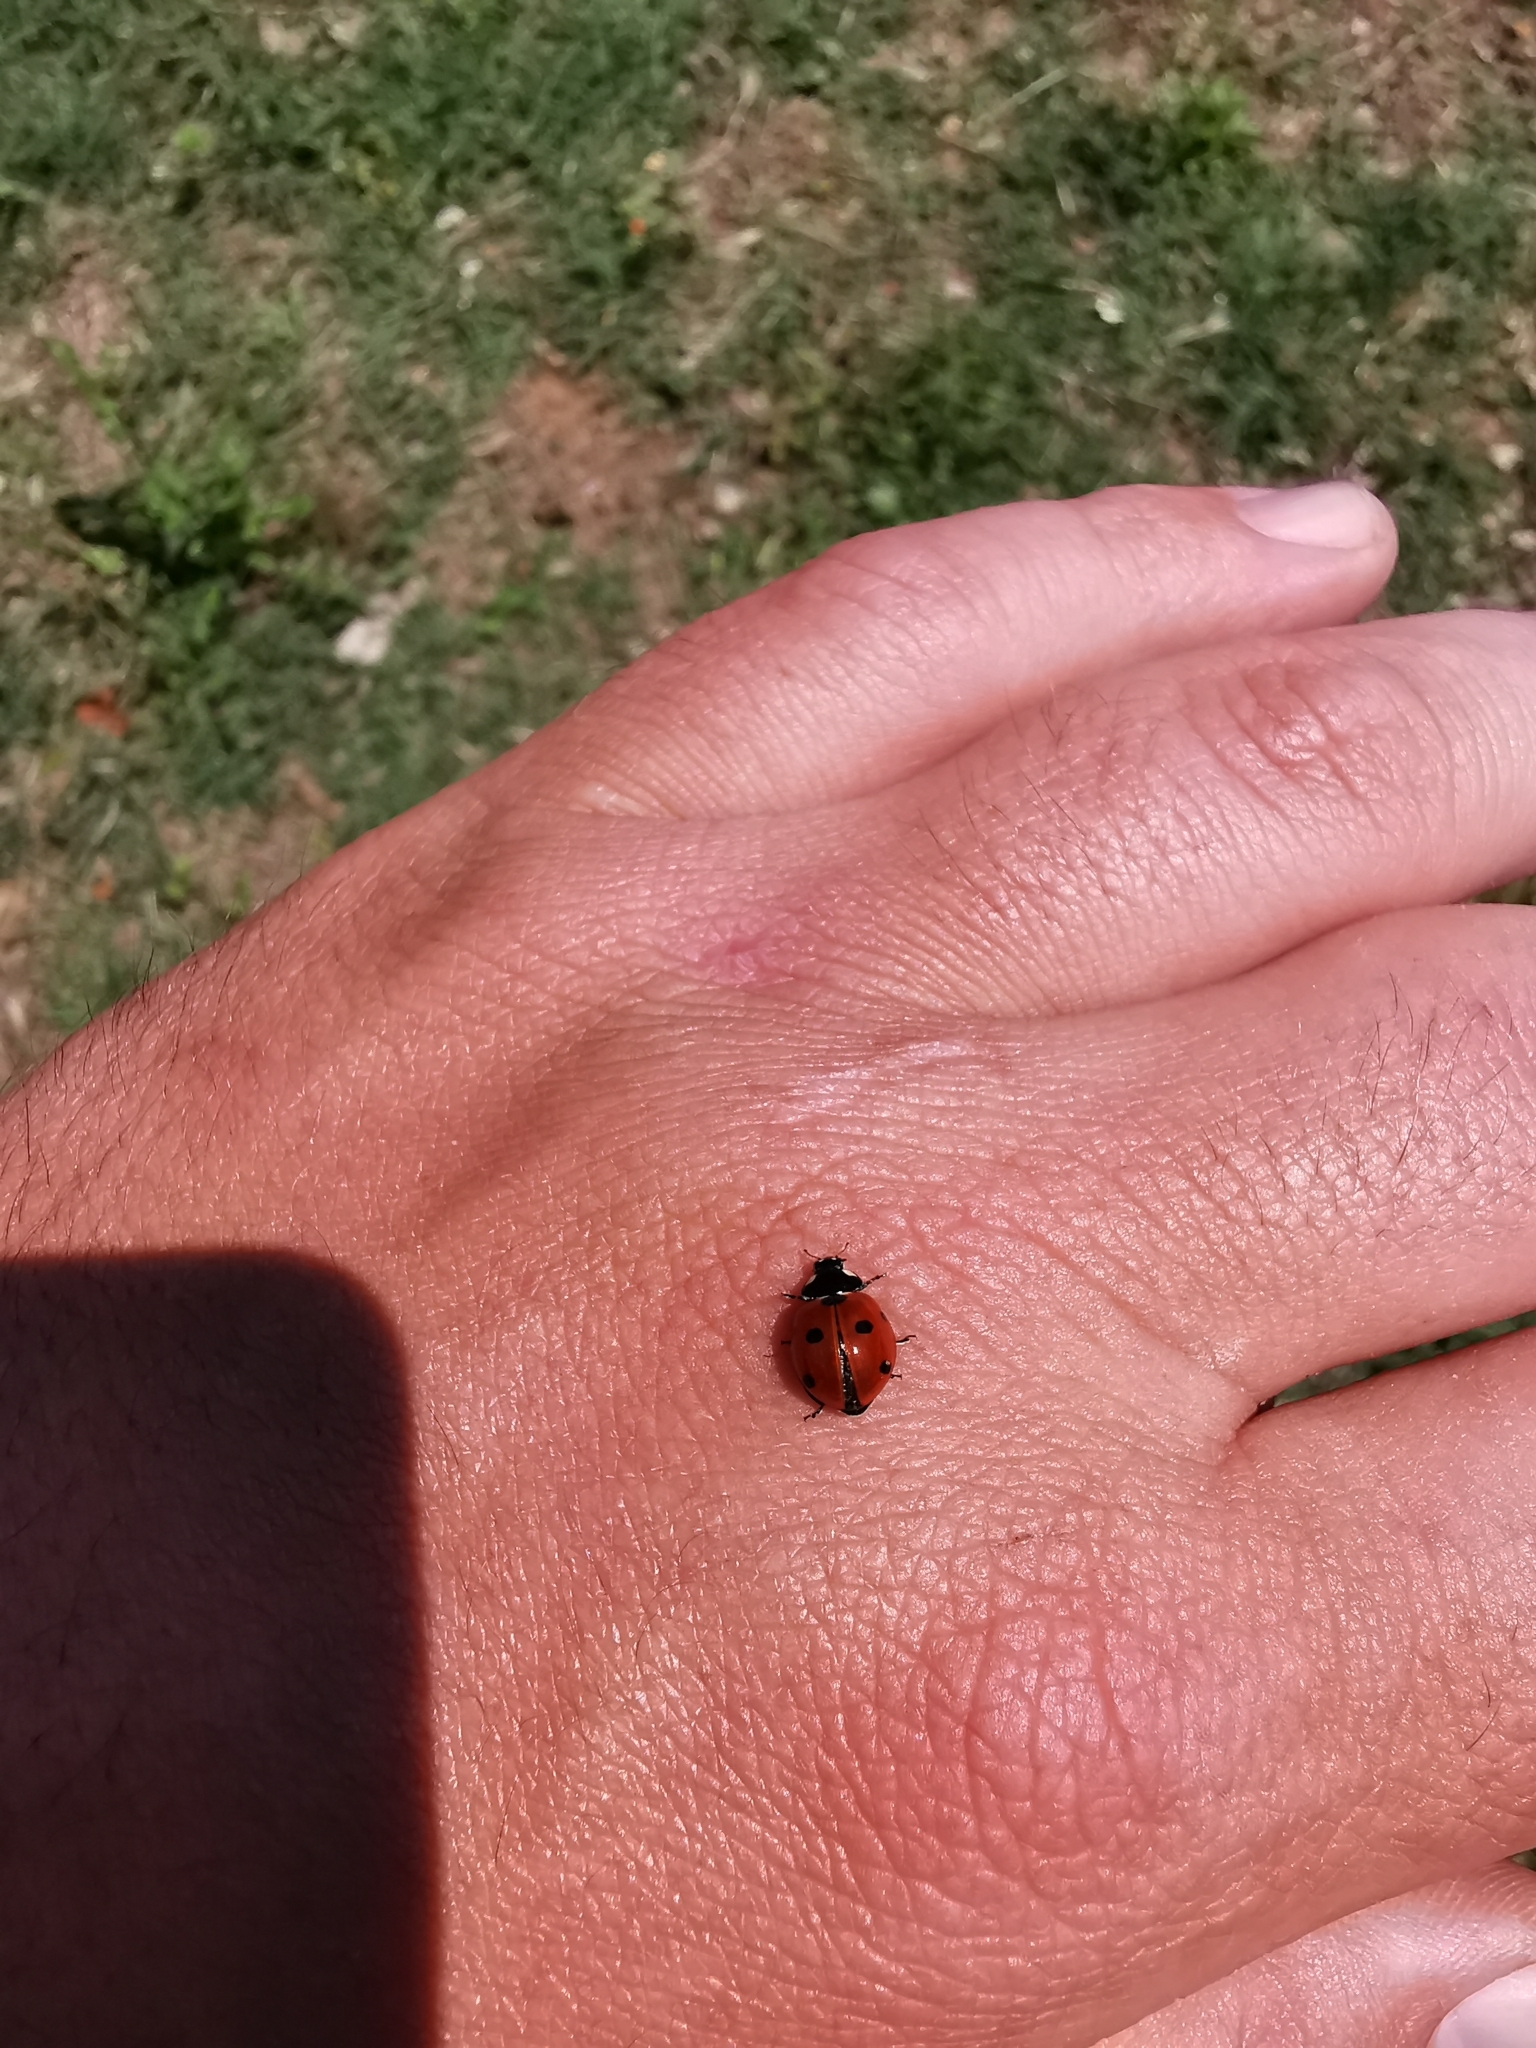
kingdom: Animalia
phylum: Arthropoda
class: Insecta
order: Coleoptera
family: Coccinellidae
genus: Coccinella
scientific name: Coccinella septempunctata
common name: Sevenspotted lady beetle
